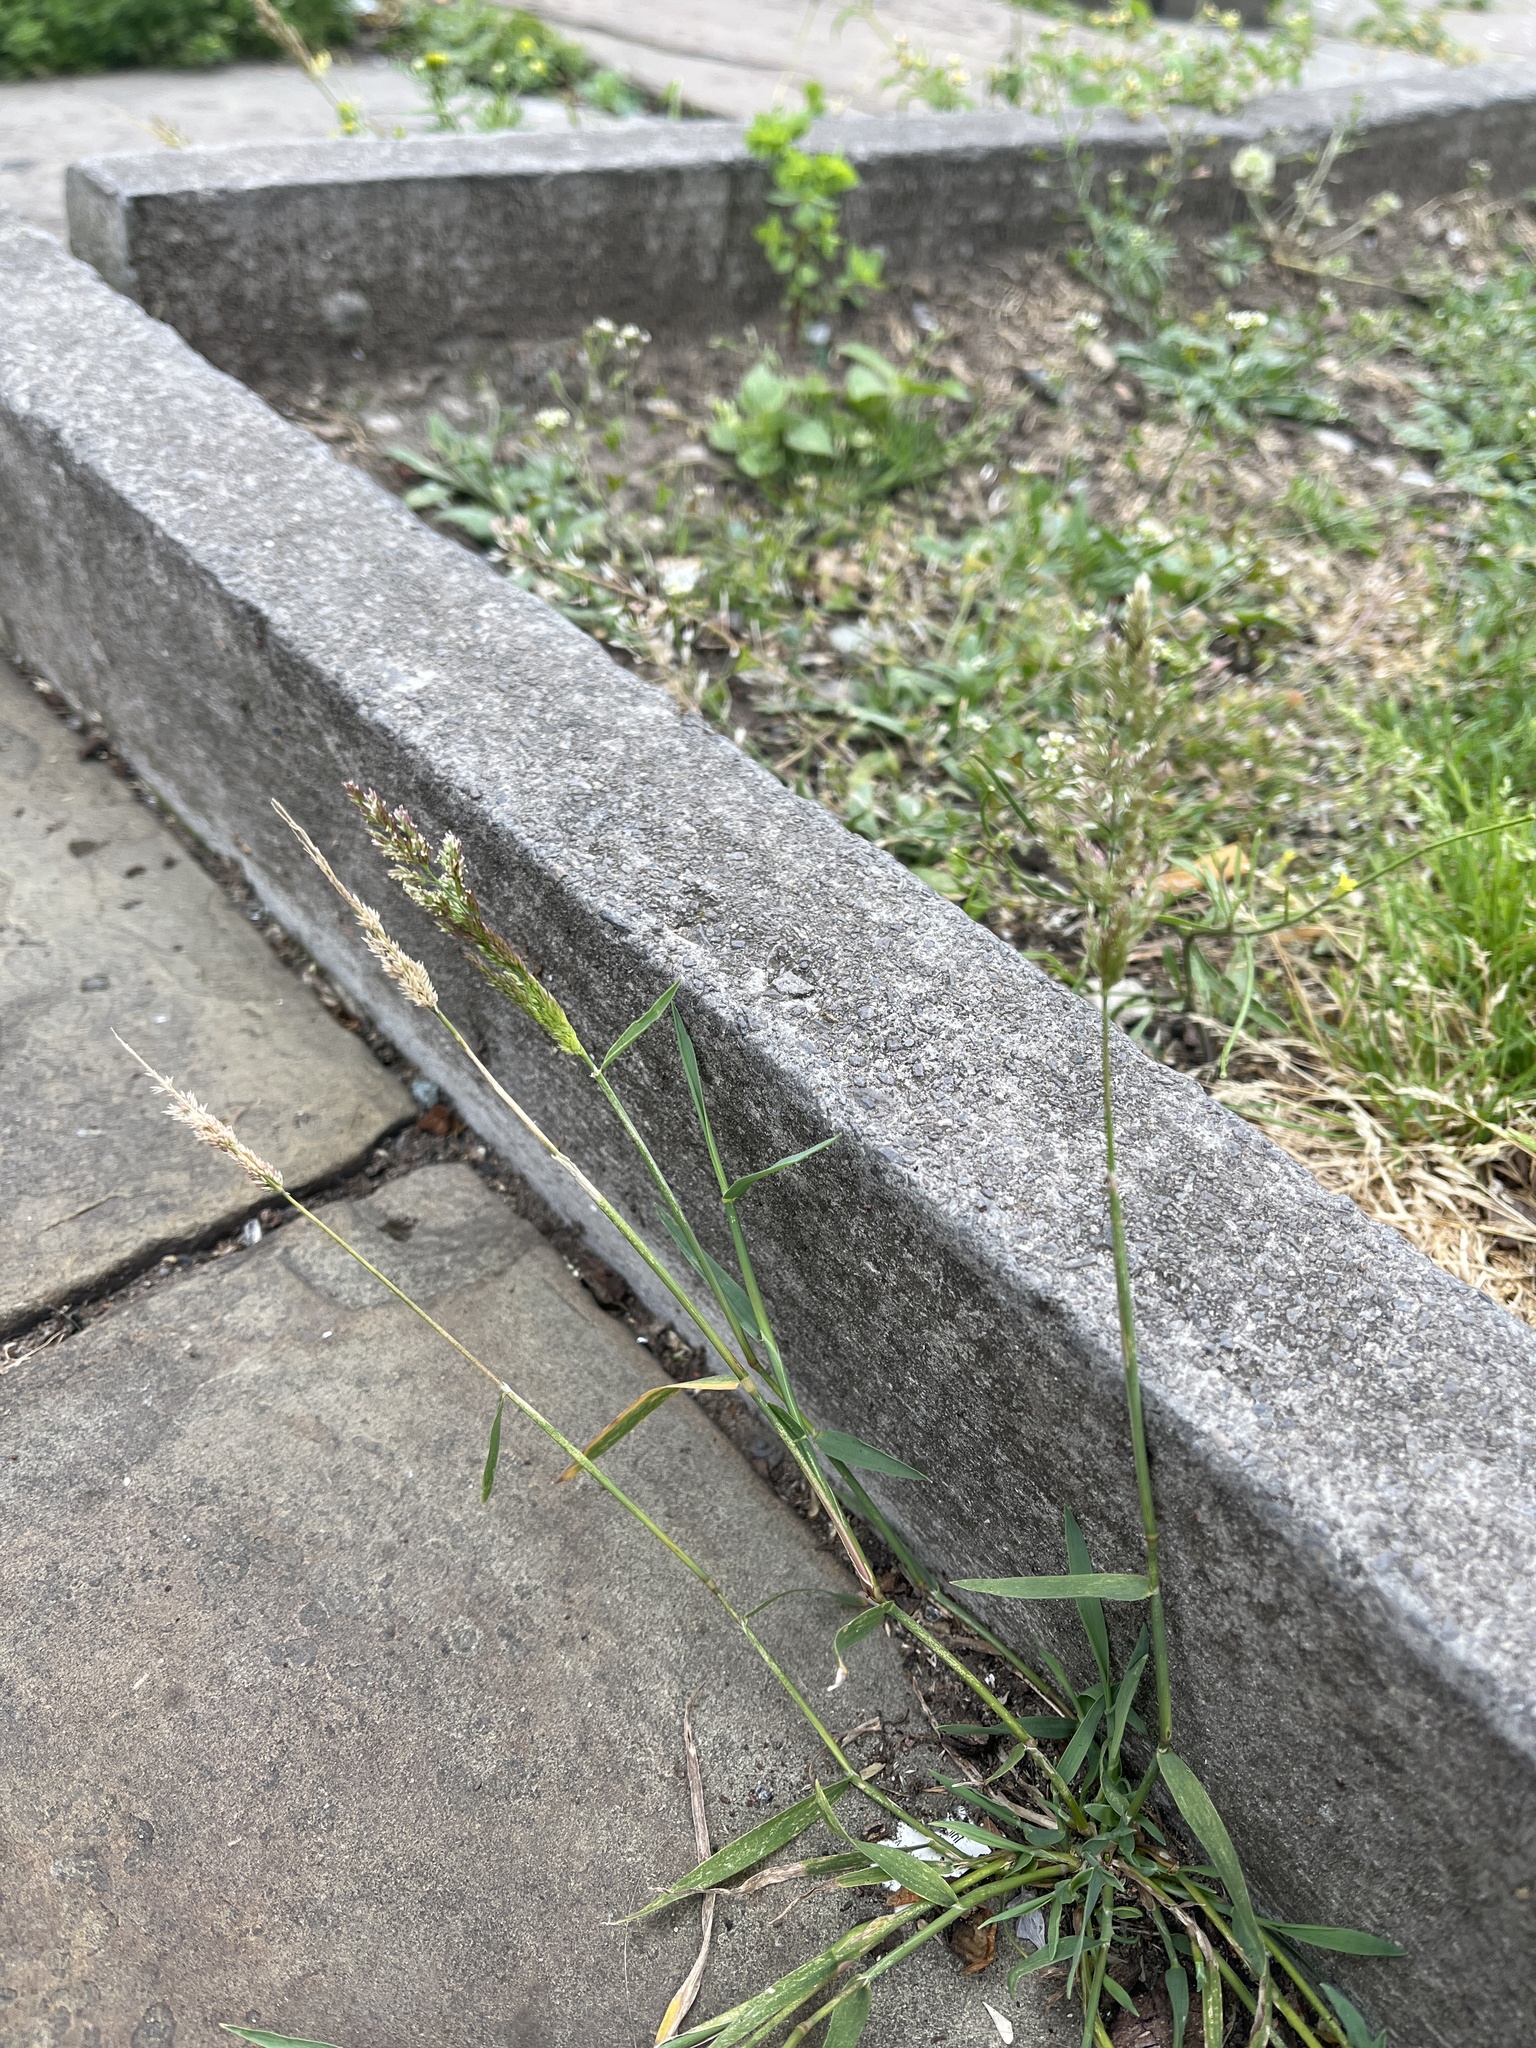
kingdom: Plantae
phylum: Tracheophyta
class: Liliopsida
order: Poales
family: Poaceae
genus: Polypogon
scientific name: Polypogon viridis
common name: Water bent
